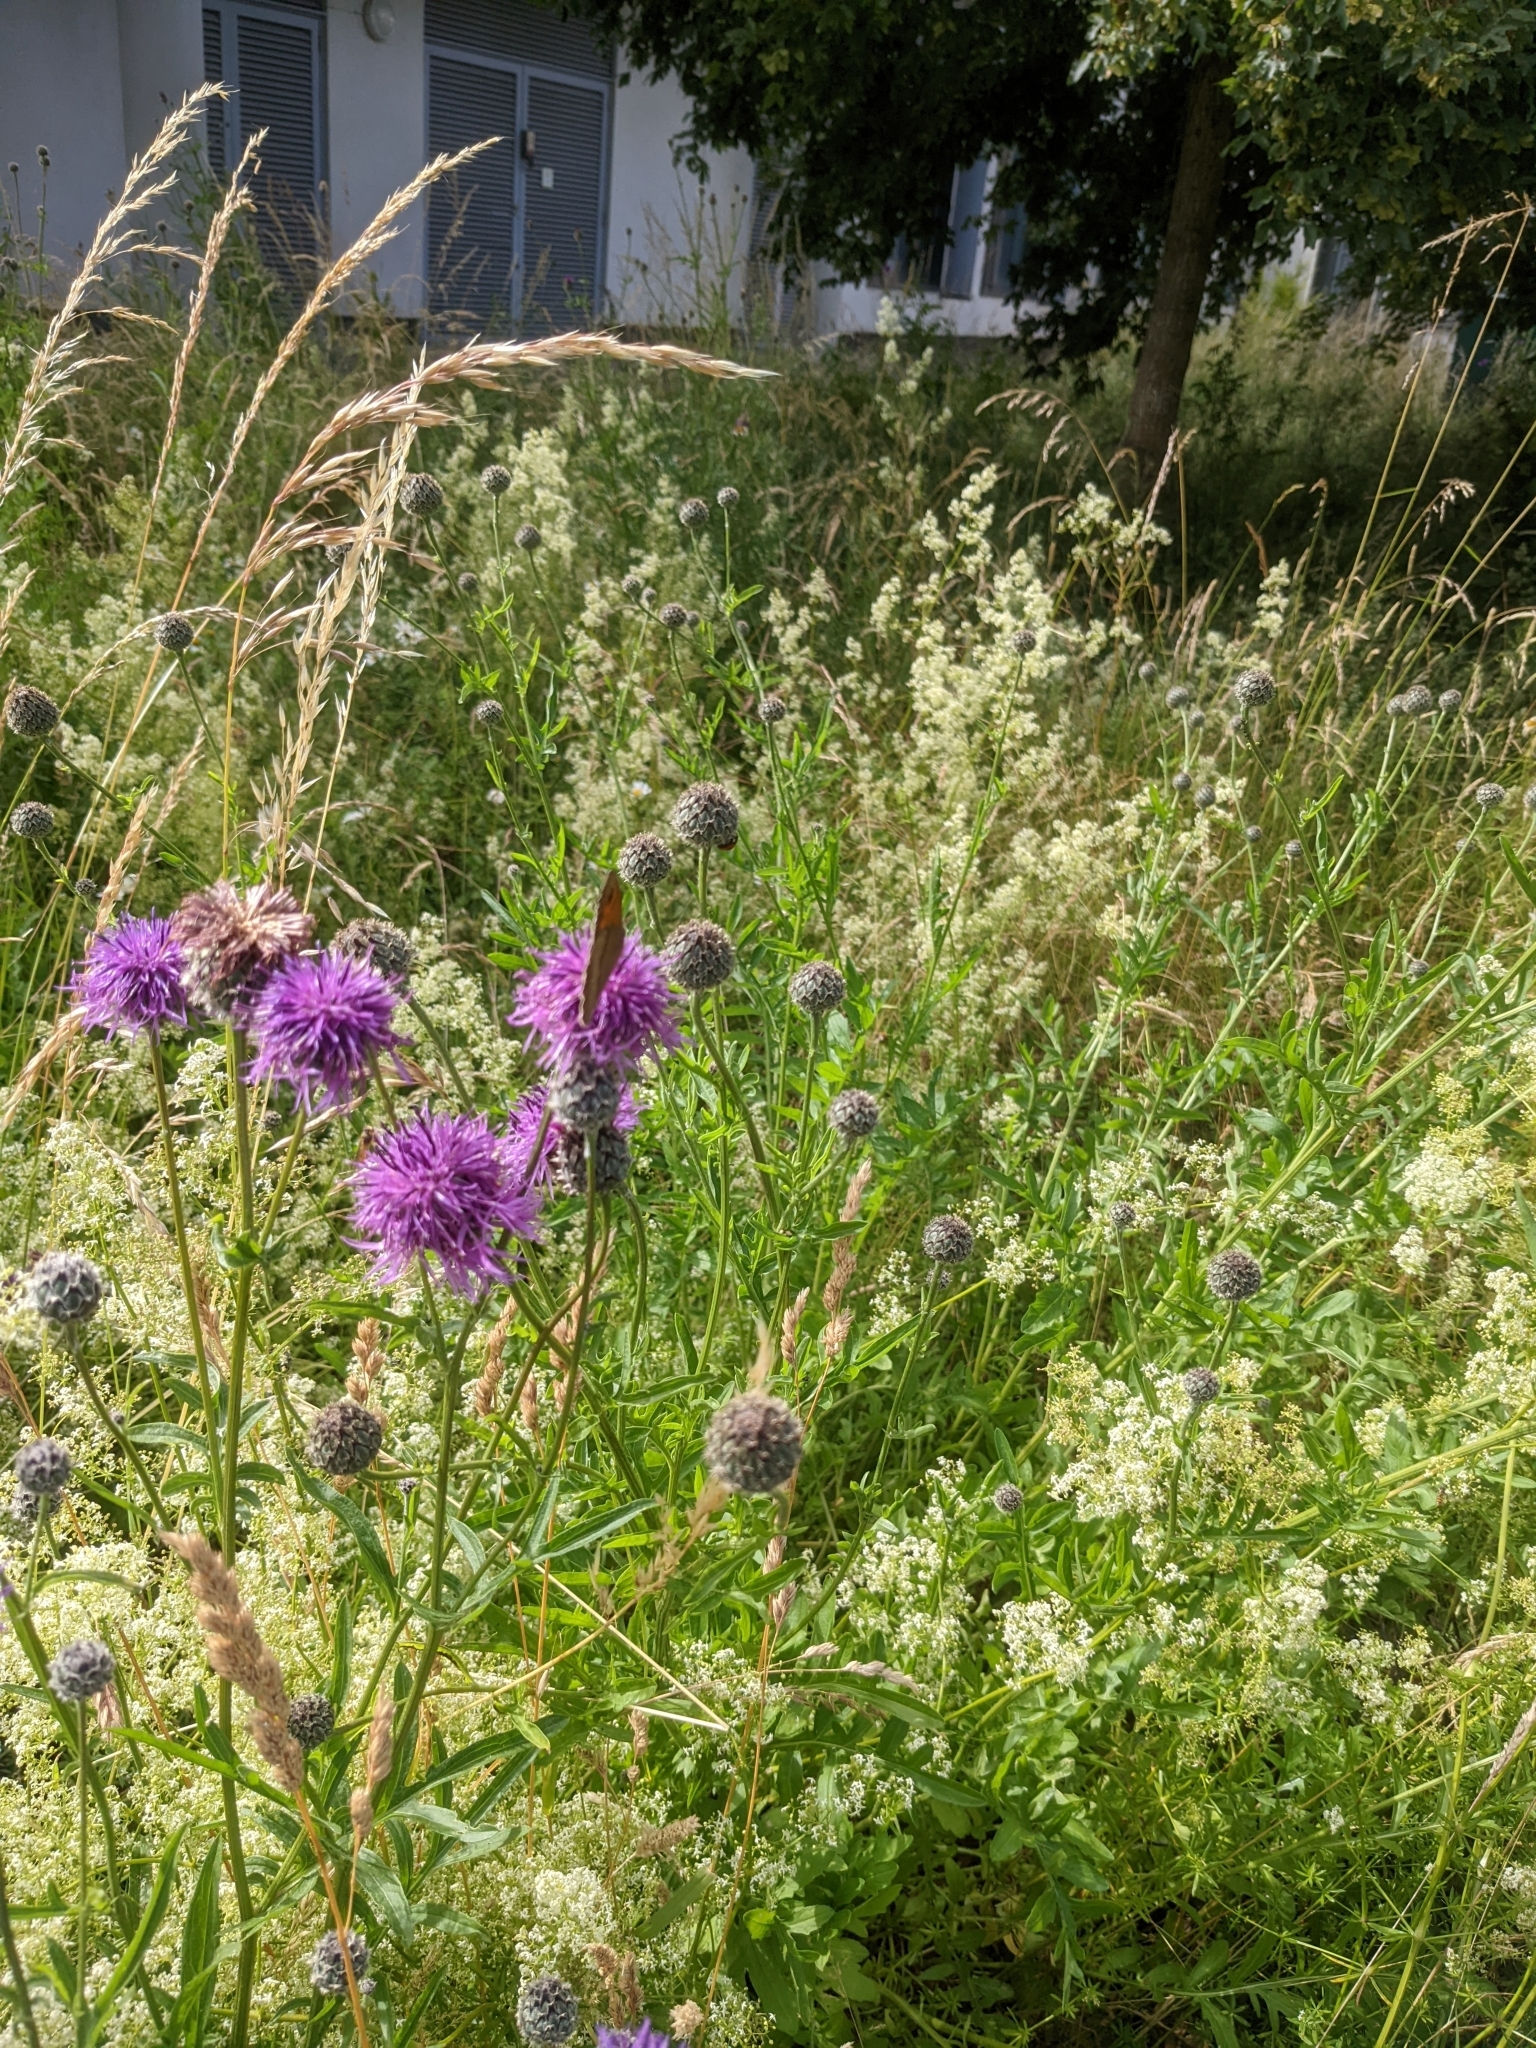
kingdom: Animalia
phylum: Arthropoda
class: Insecta
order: Lepidoptera
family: Nymphalidae
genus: Maniola
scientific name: Maniola jurtina
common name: Meadow brown
